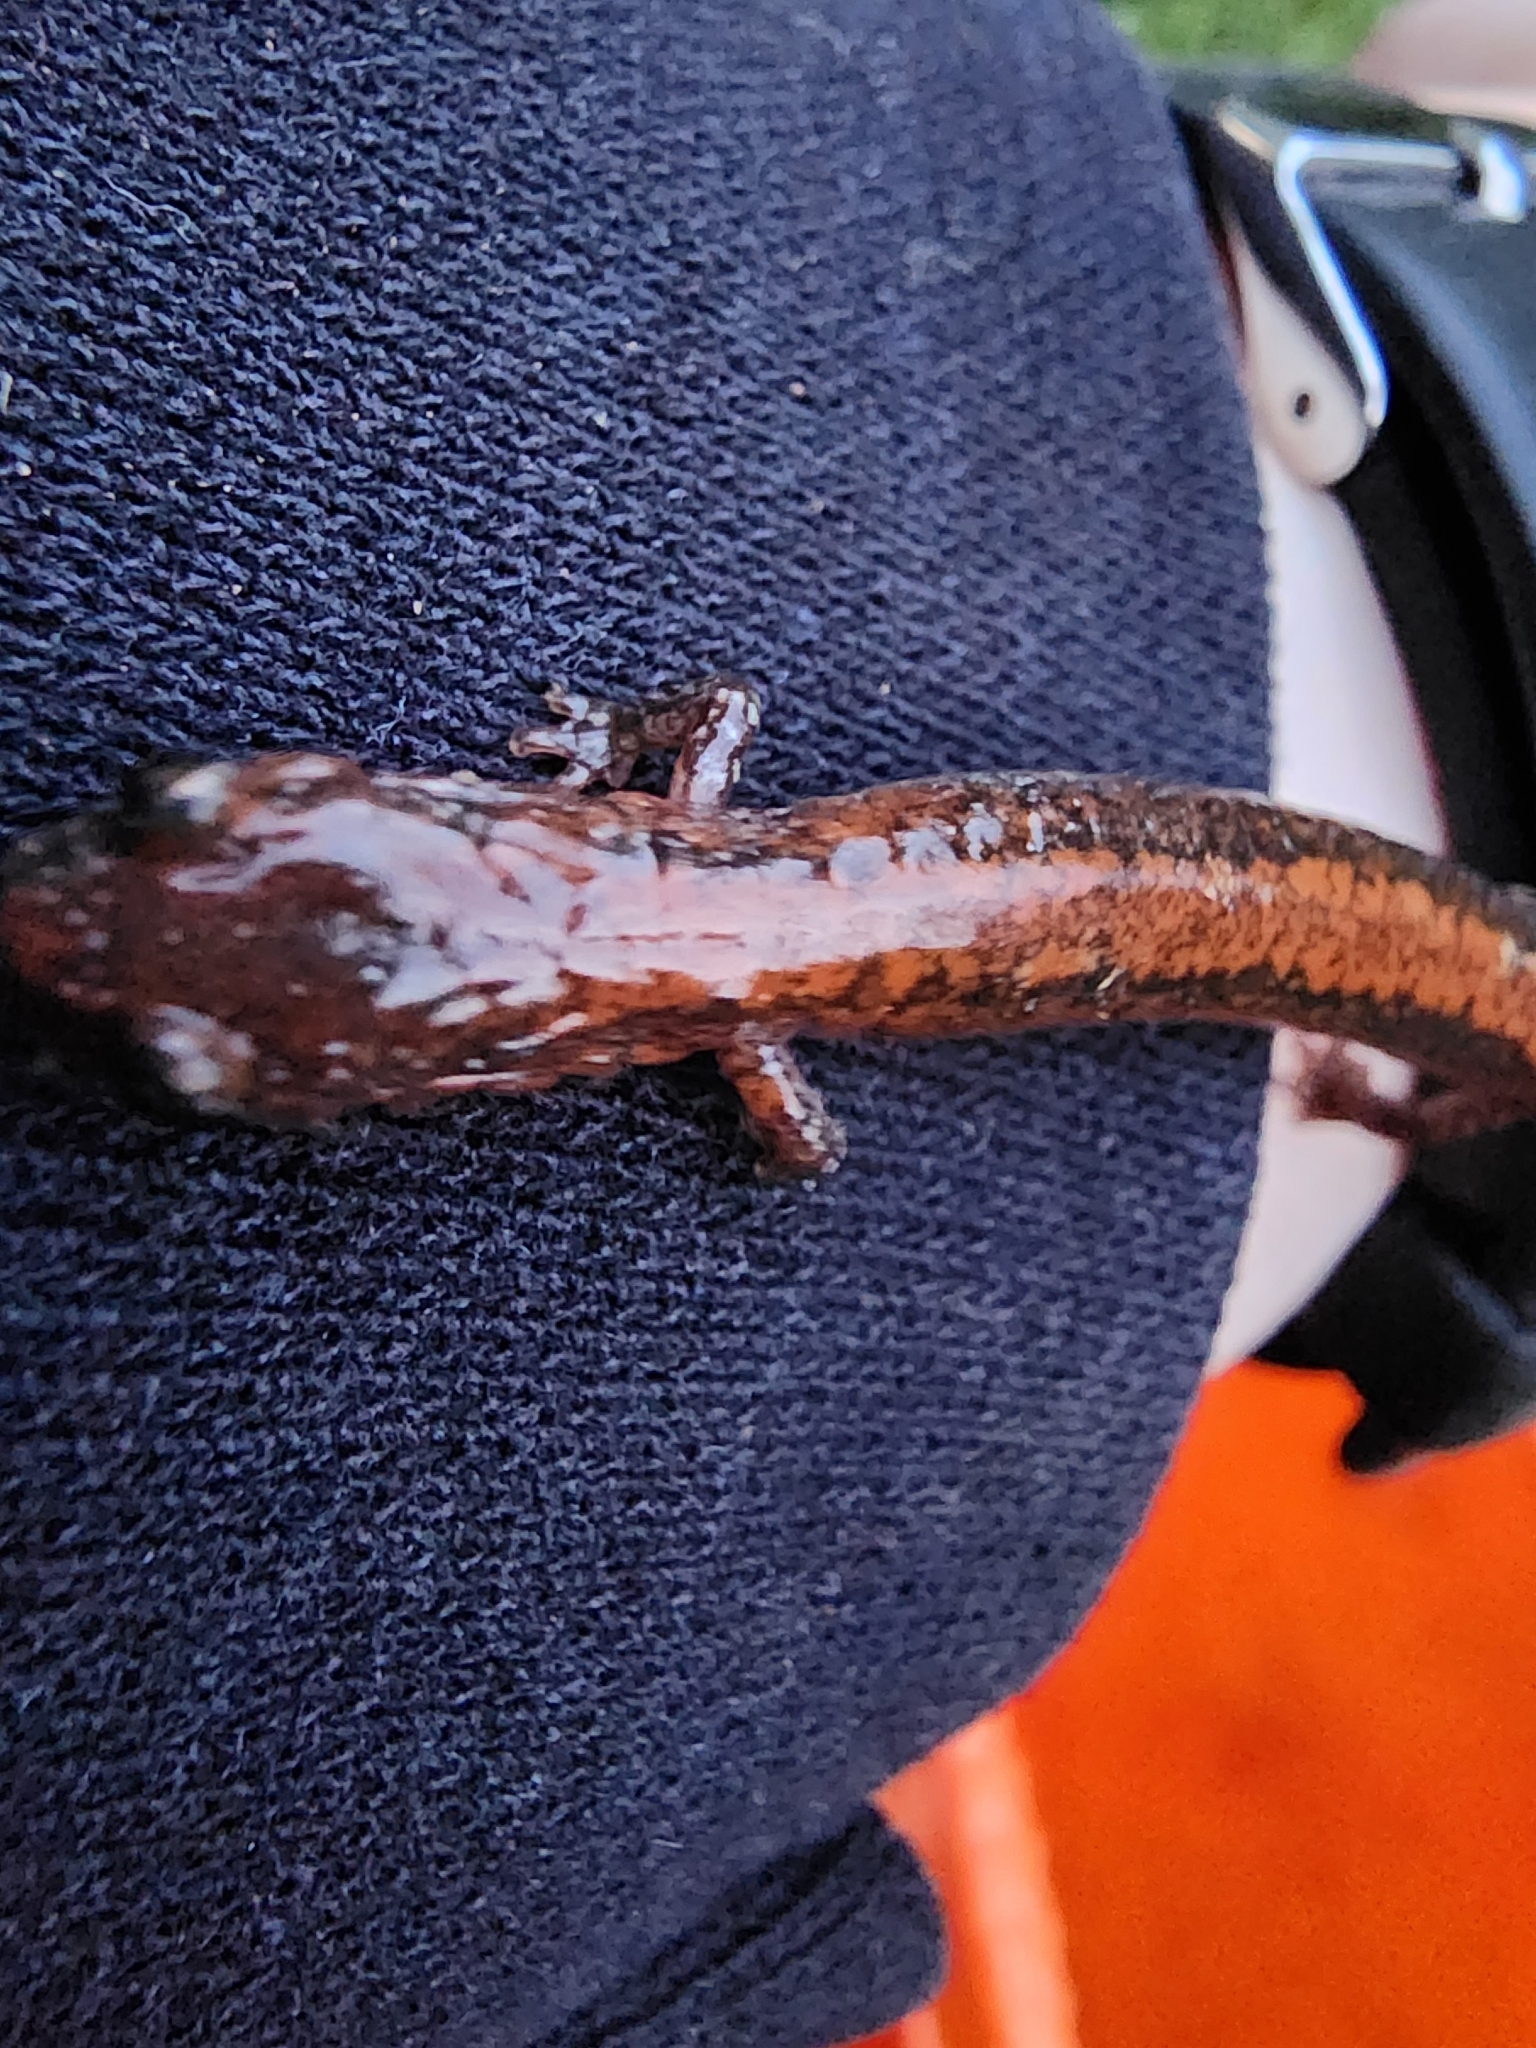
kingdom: Animalia
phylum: Chordata
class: Amphibia
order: Caudata
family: Plethodontidae
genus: Plethodon
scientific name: Plethodon cinereus
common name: Redback salamander
